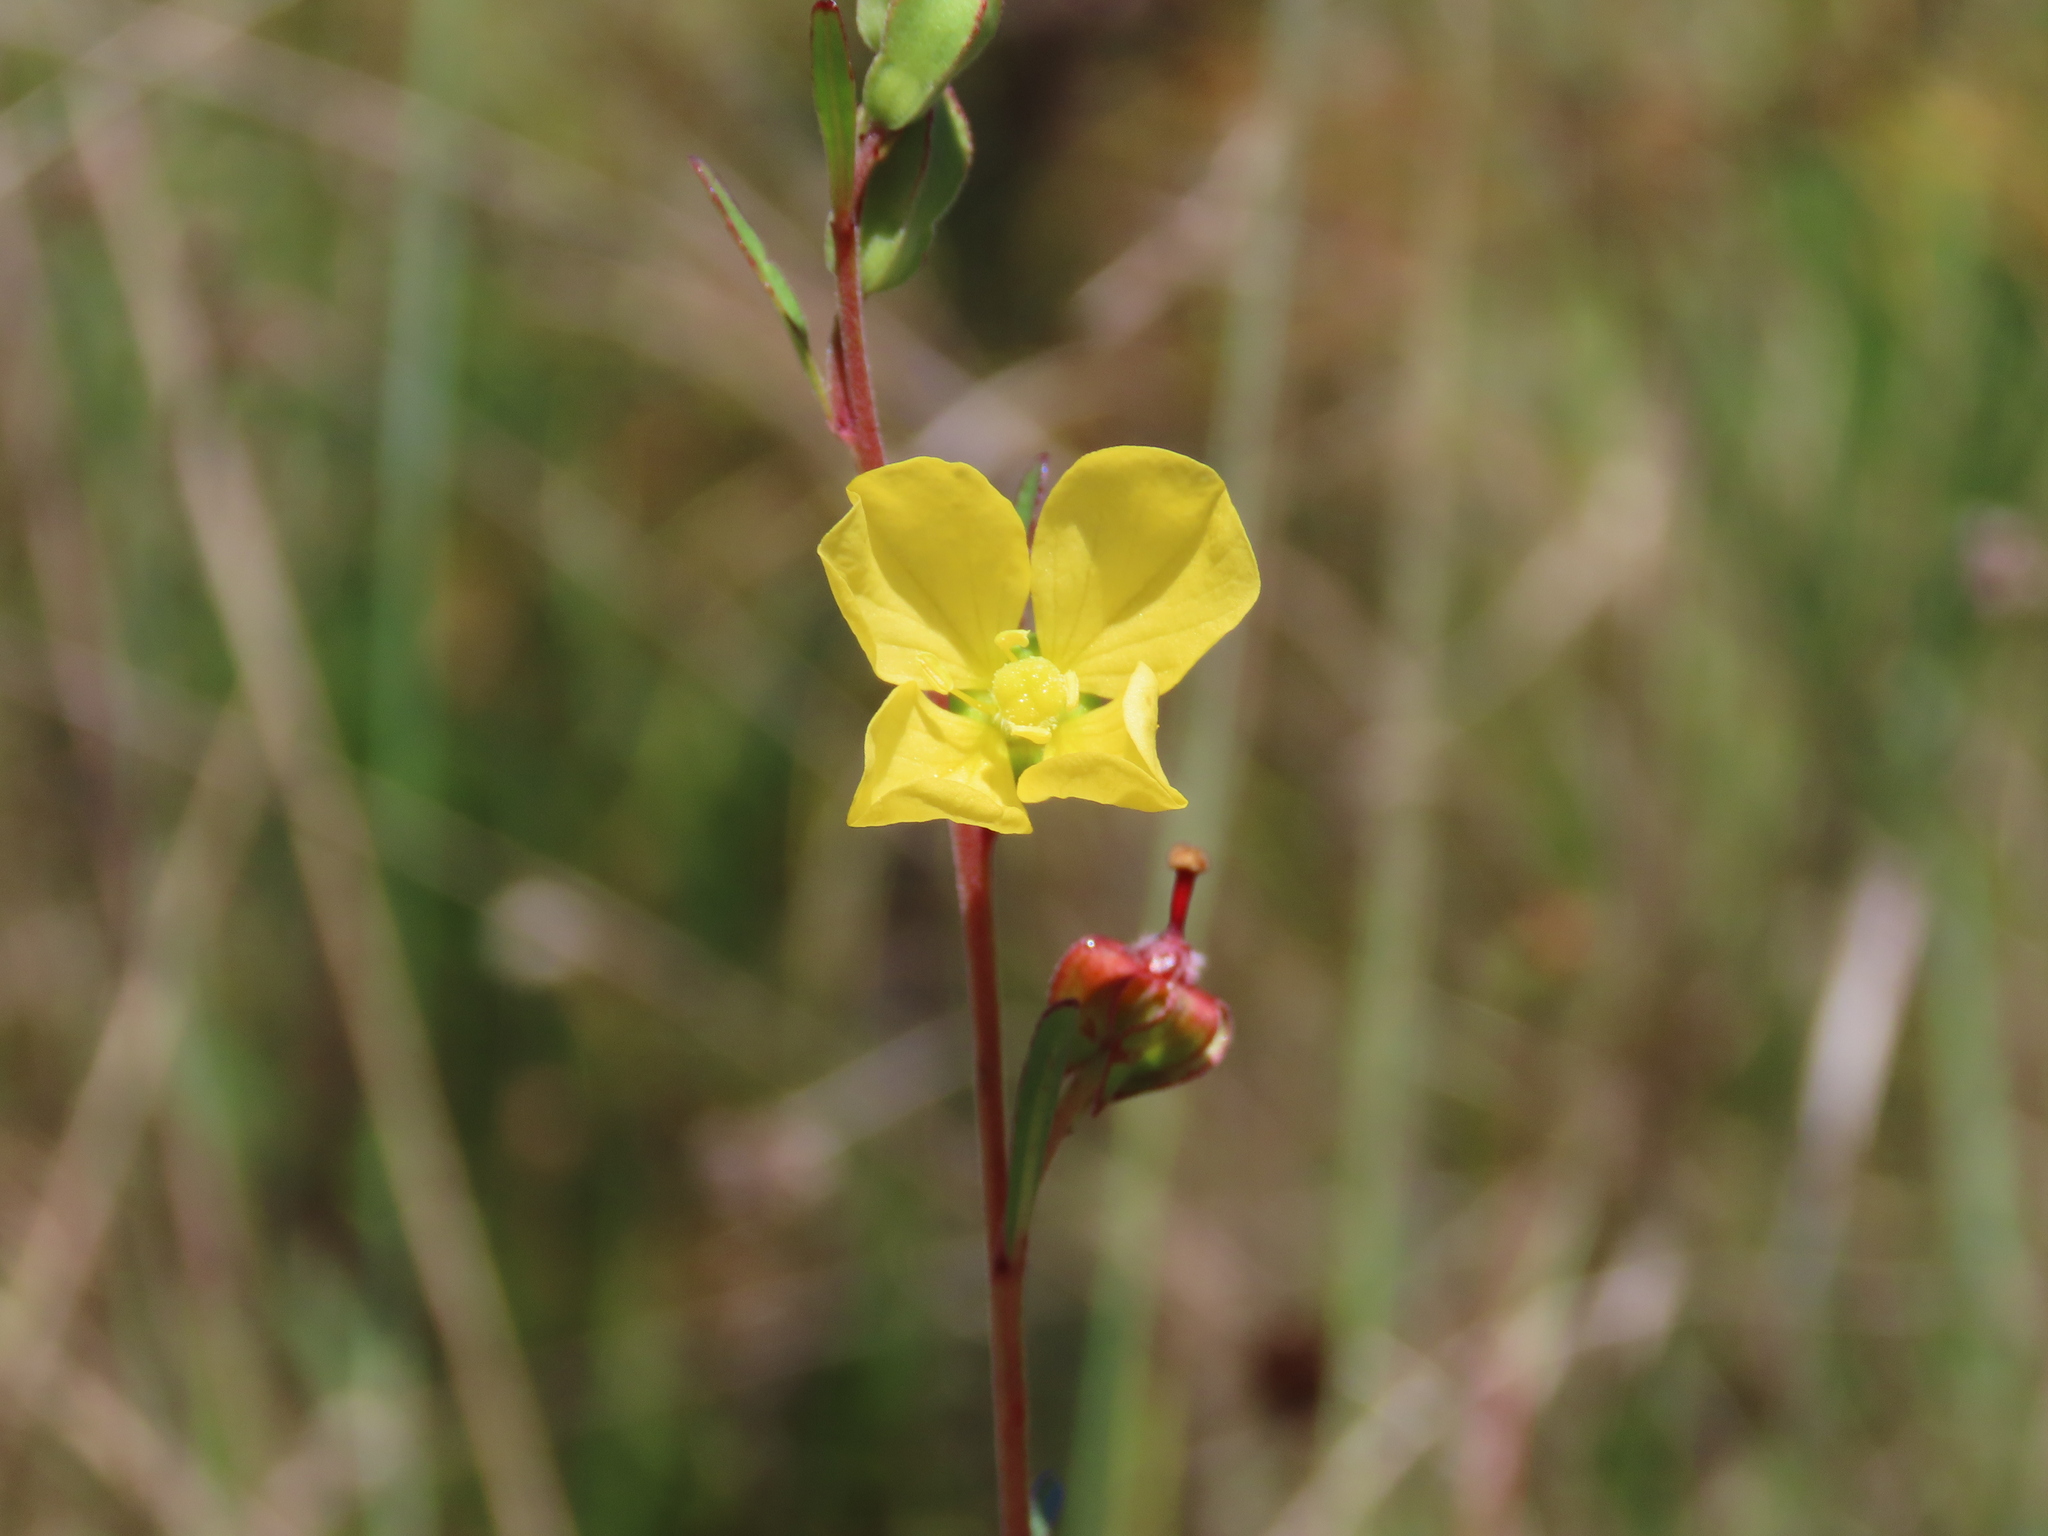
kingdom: Plantae
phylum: Tracheophyta
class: Magnoliopsida
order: Myrtales
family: Onagraceae
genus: Ludwigia
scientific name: Ludwigia maritima
